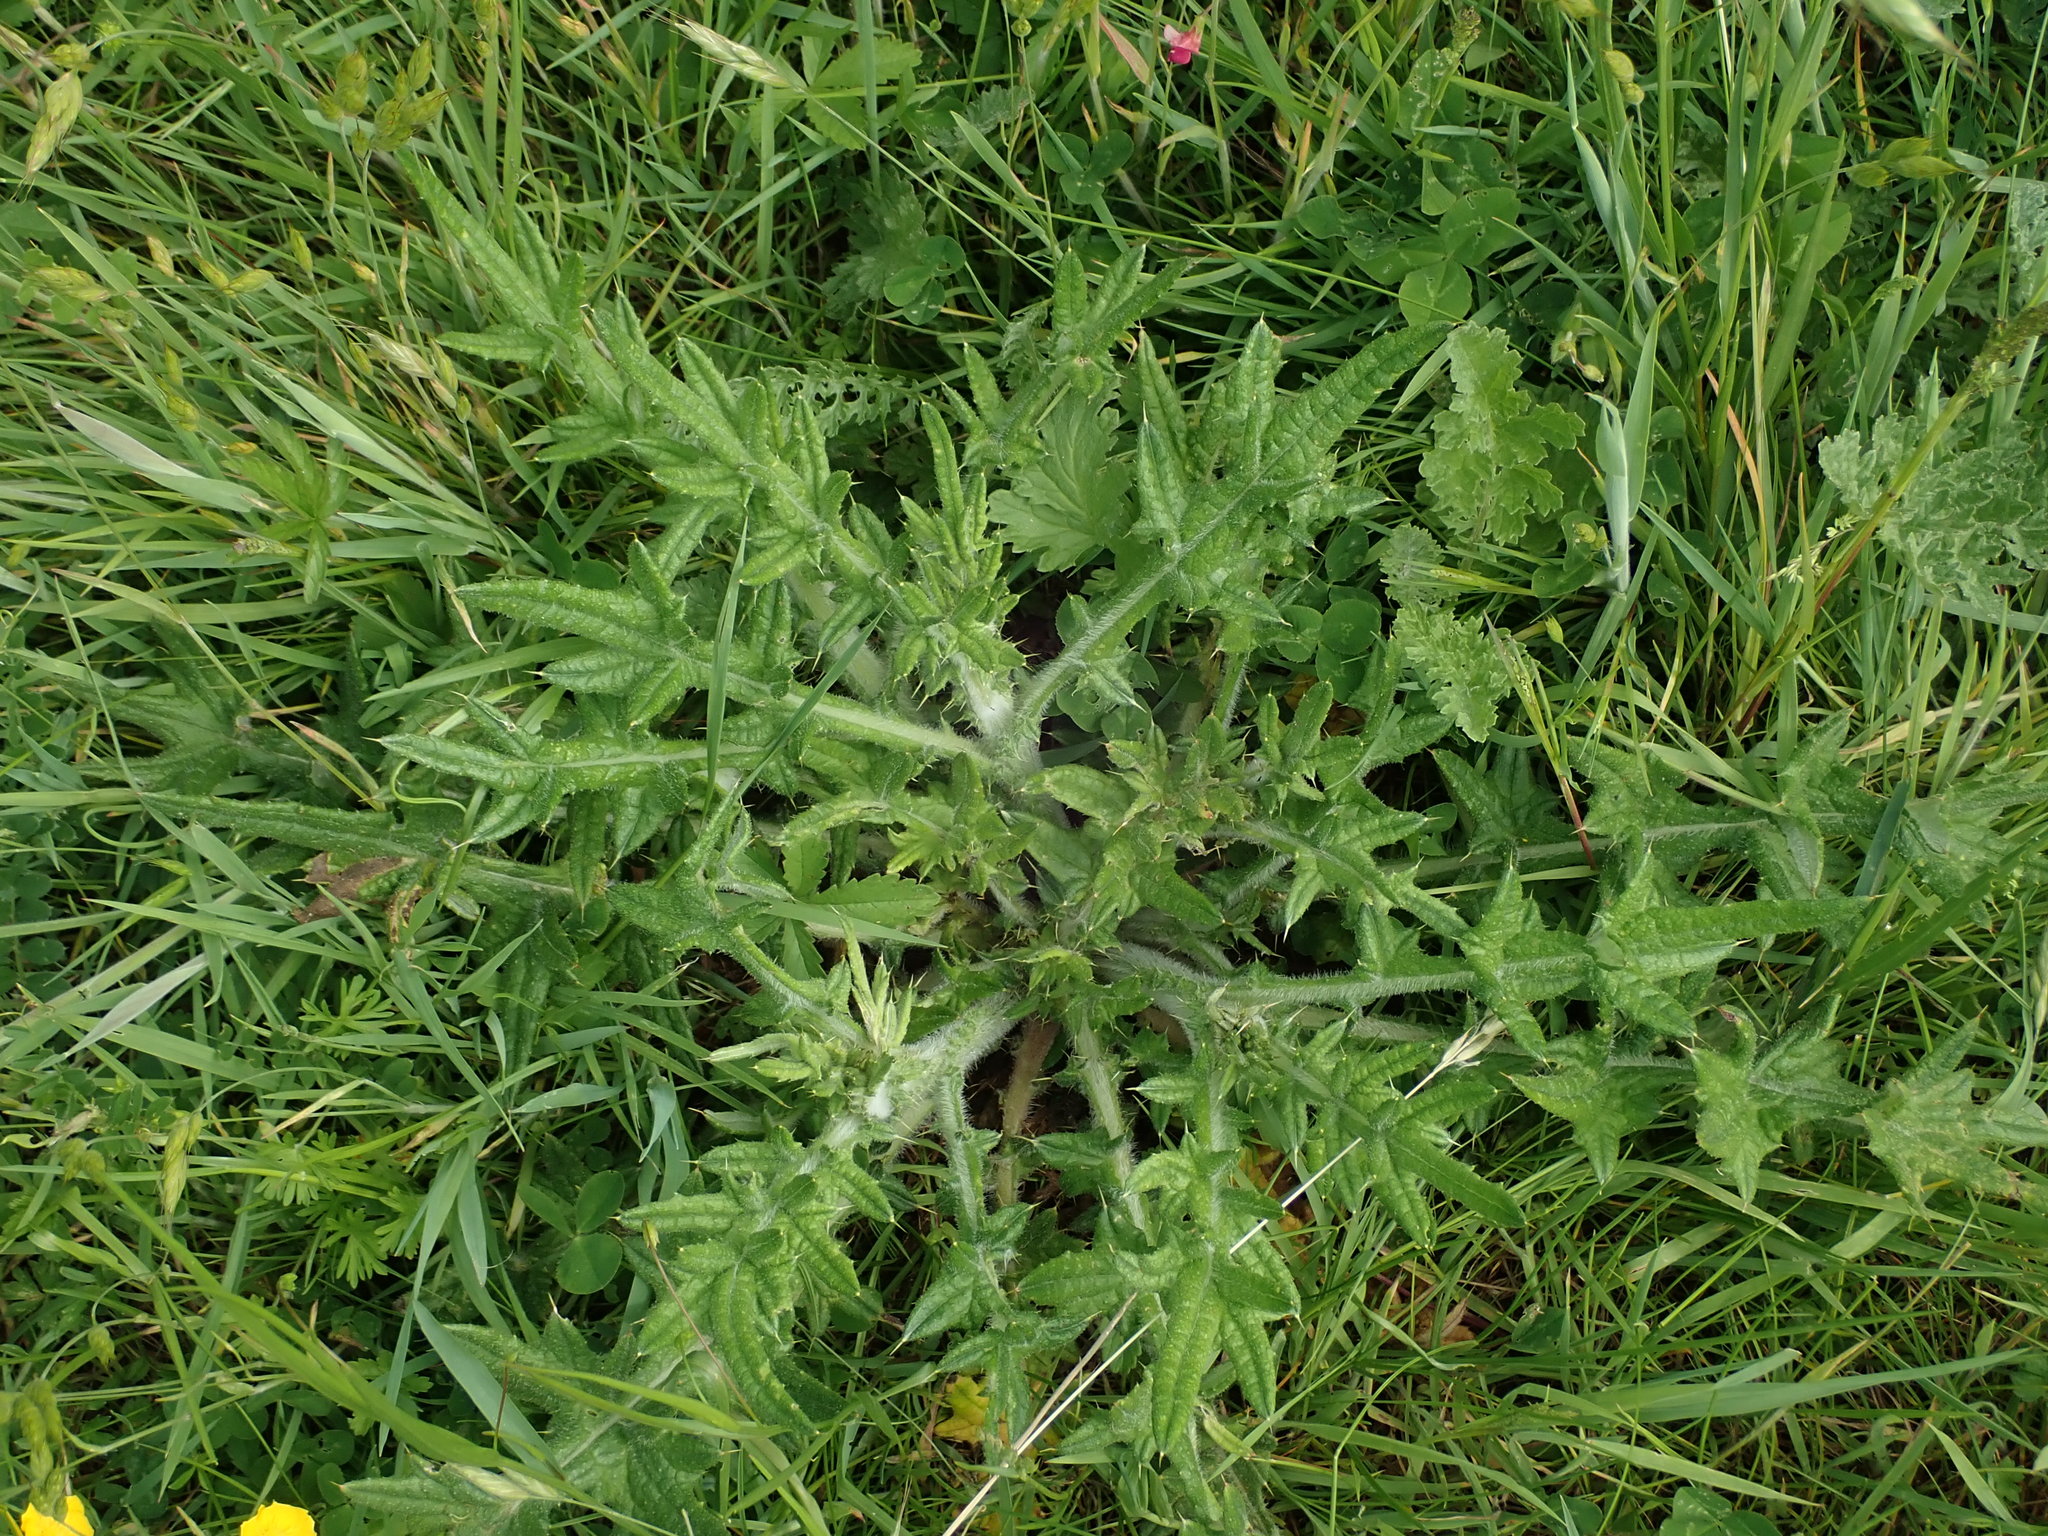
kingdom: Plantae
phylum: Tracheophyta
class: Magnoliopsida
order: Asterales
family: Asteraceae
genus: Cirsium
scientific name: Cirsium vulgare
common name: Bull thistle
